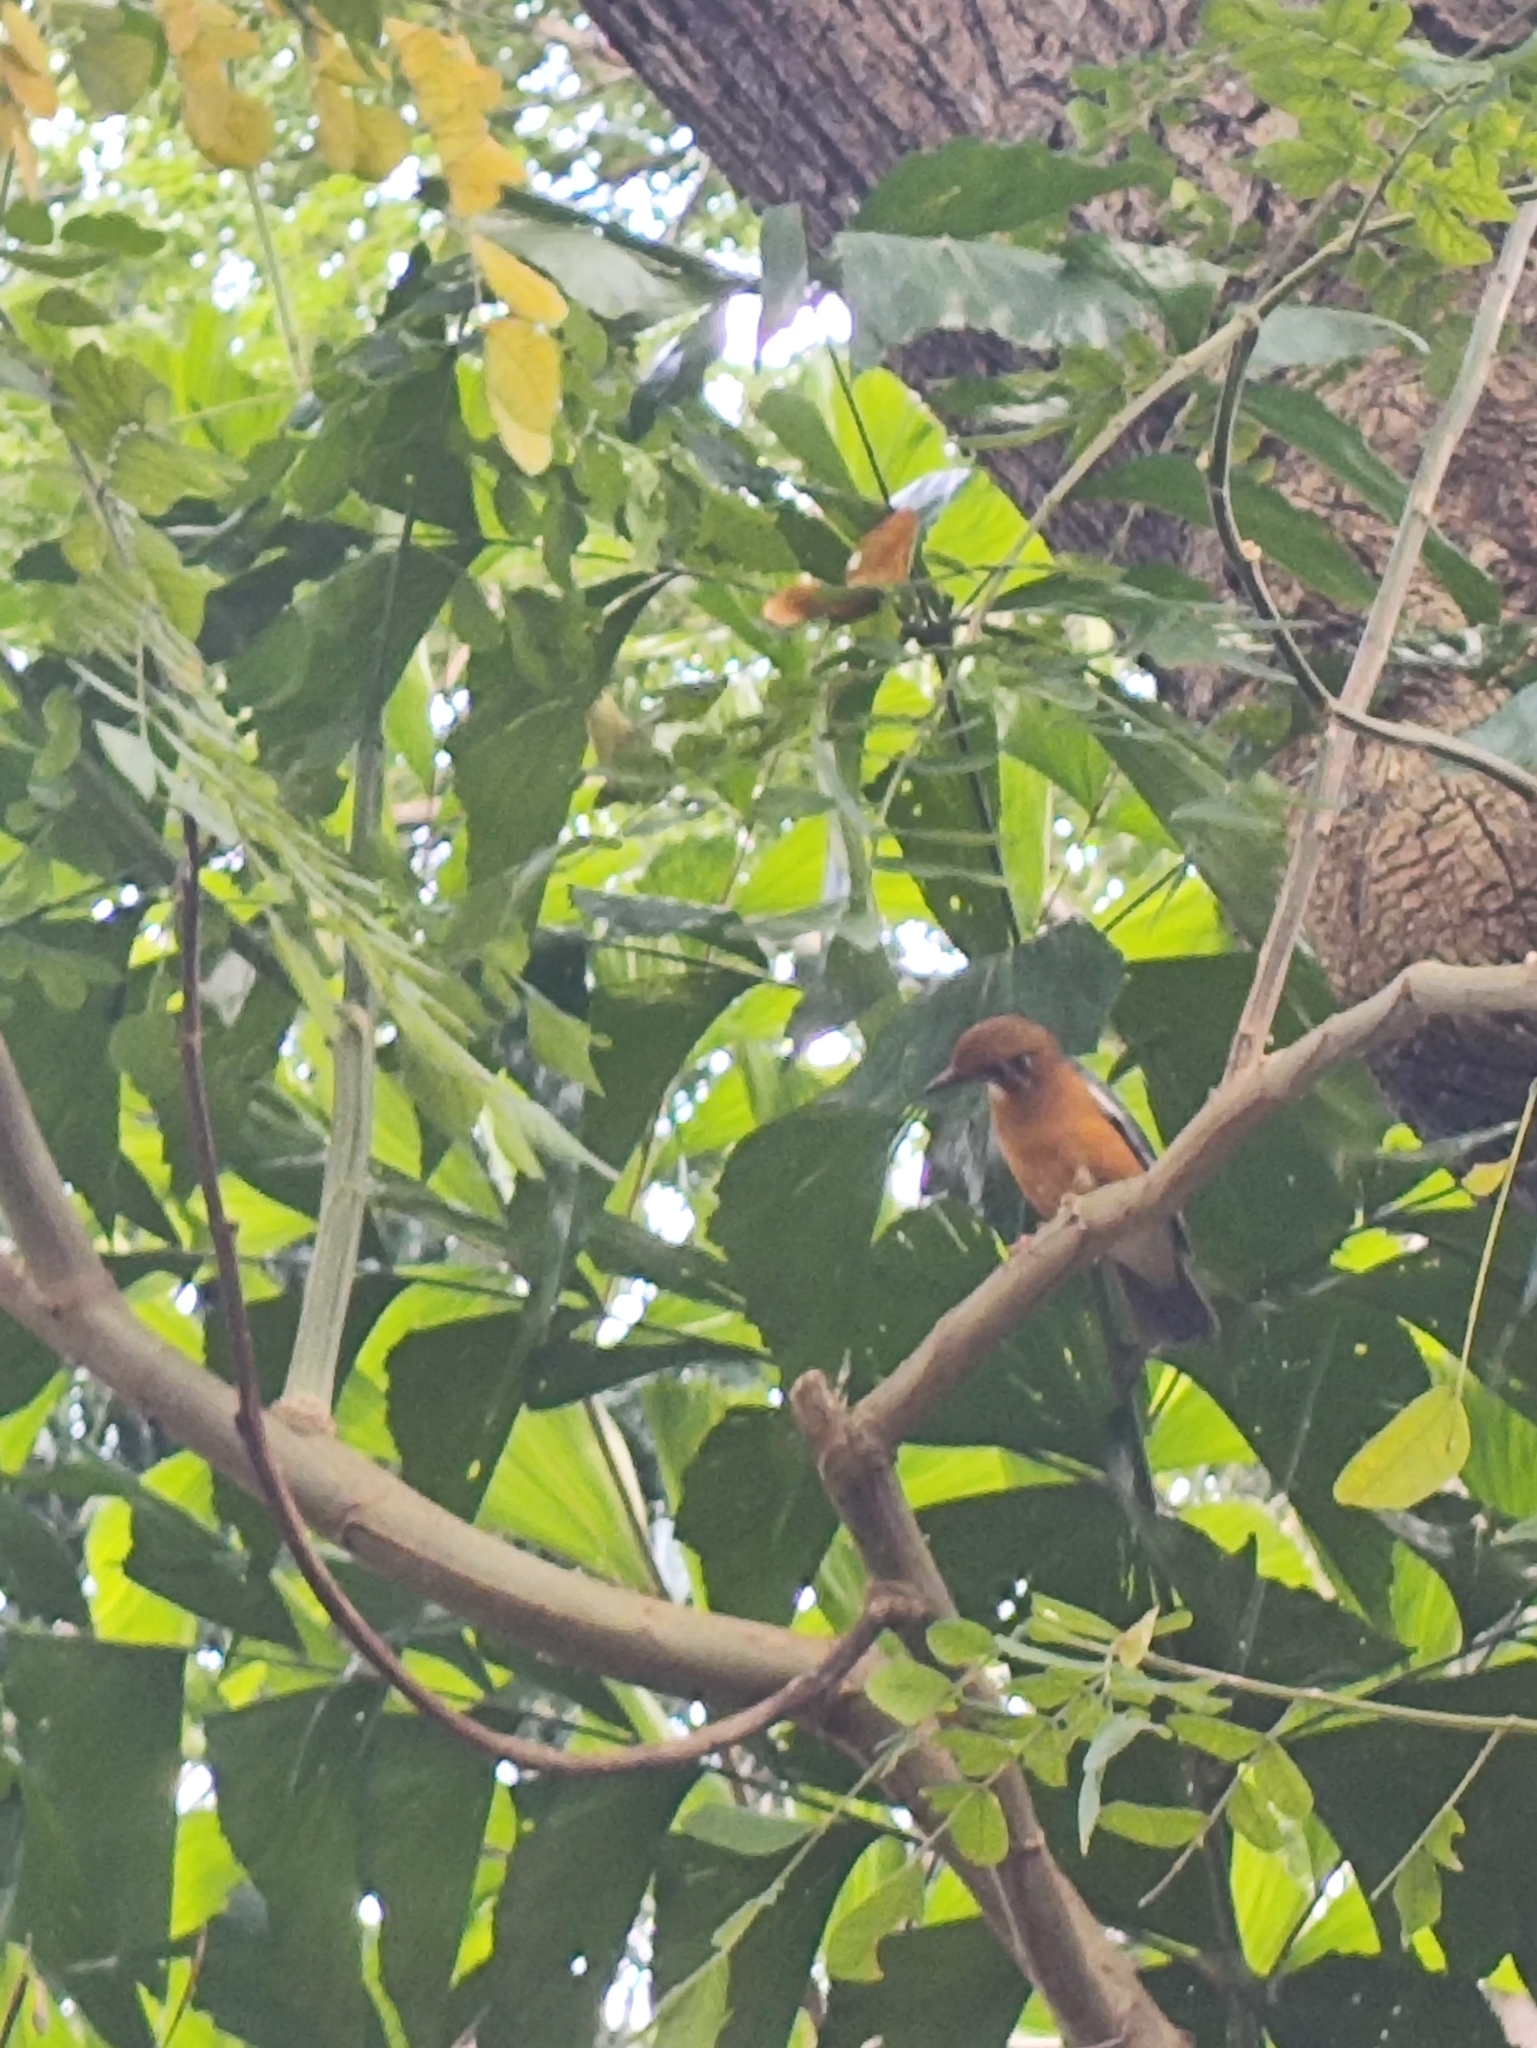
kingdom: Animalia
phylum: Chordata
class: Aves
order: Passeriformes
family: Turdidae
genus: Geokichla
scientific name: Geokichla citrina
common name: Orange-headed thrush
